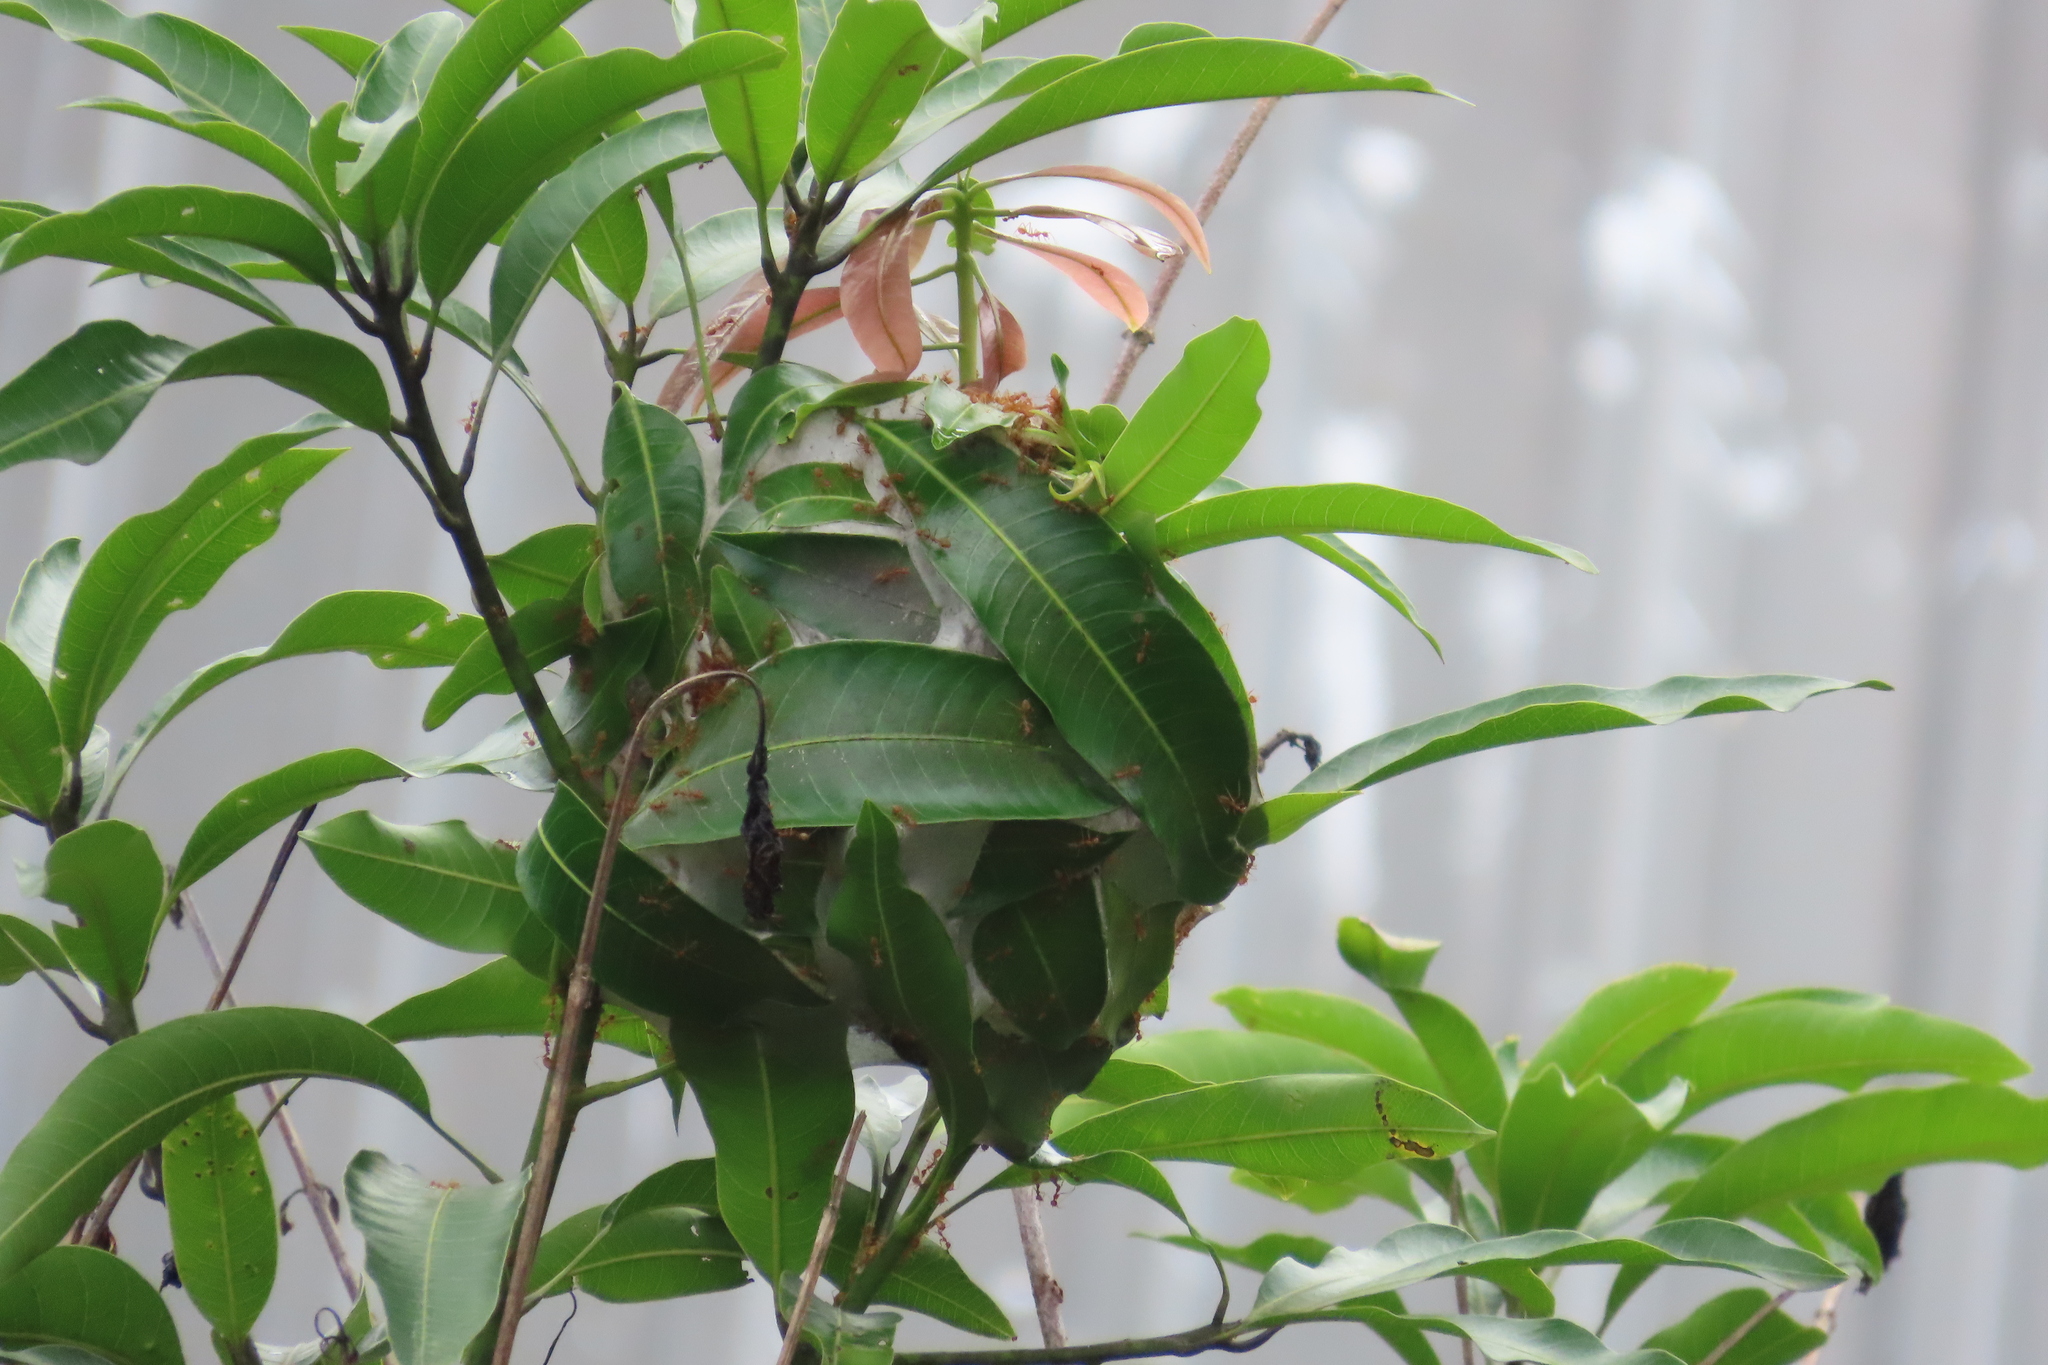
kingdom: Animalia
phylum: Arthropoda
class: Insecta
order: Hymenoptera
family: Formicidae
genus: Oecophylla
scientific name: Oecophylla smaragdina
